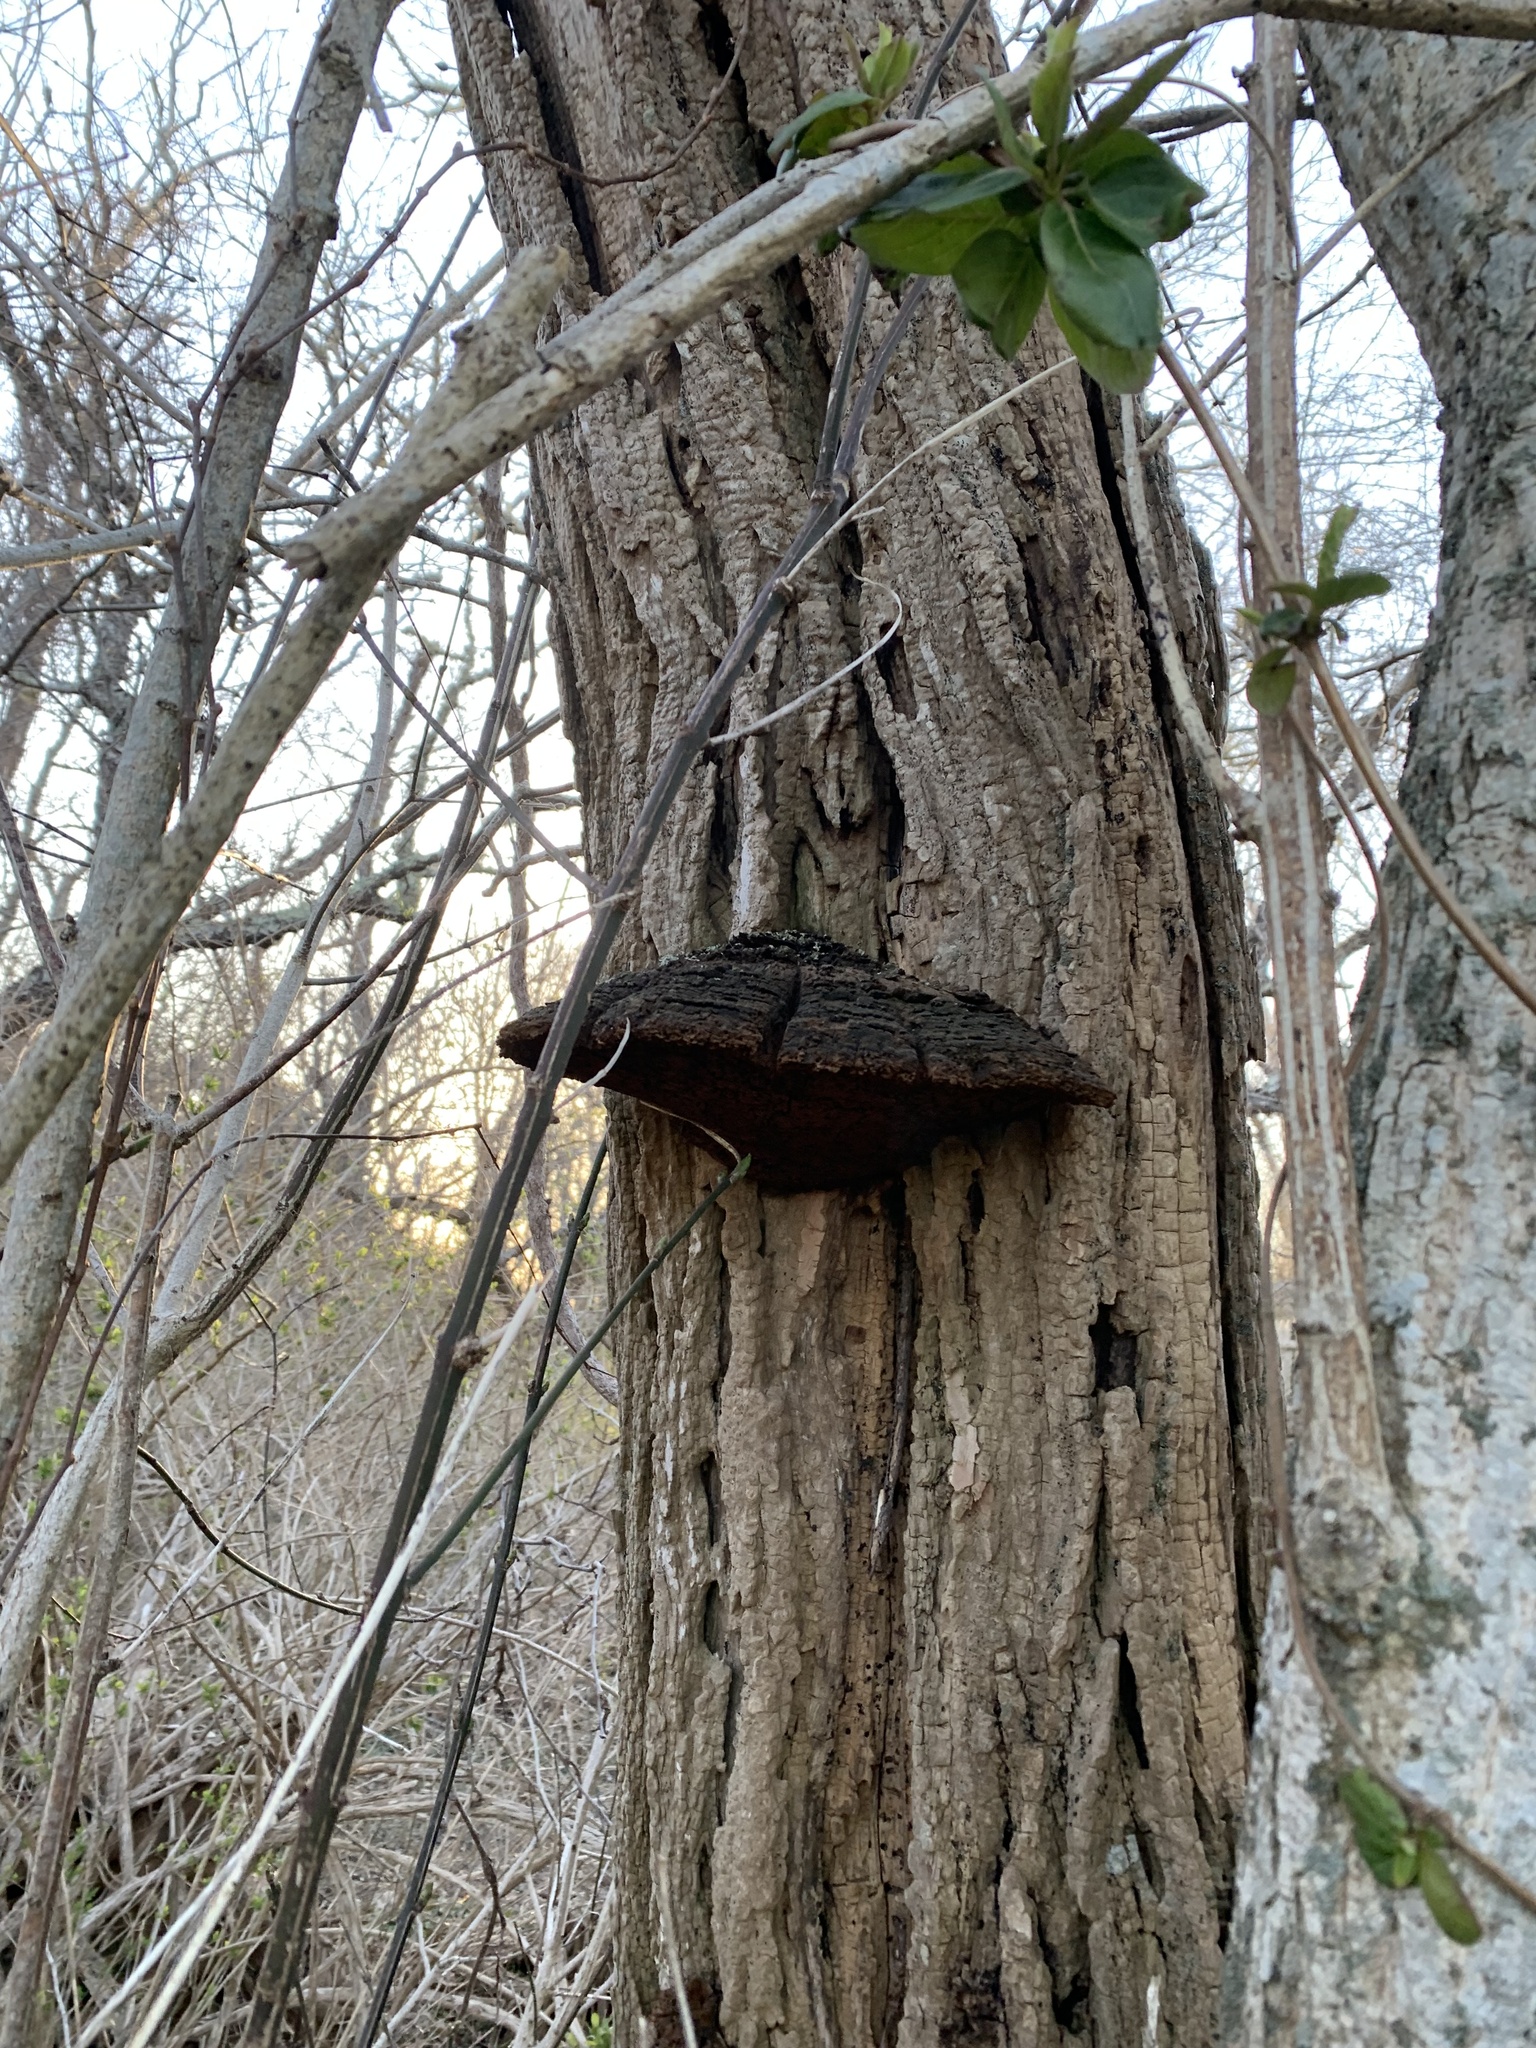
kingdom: Plantae
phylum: Tracheophyta
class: Magnoliopsida
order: Fabales
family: Fabaceae
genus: Robinia
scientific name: Robinia pseudoacacia
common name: Black locust
